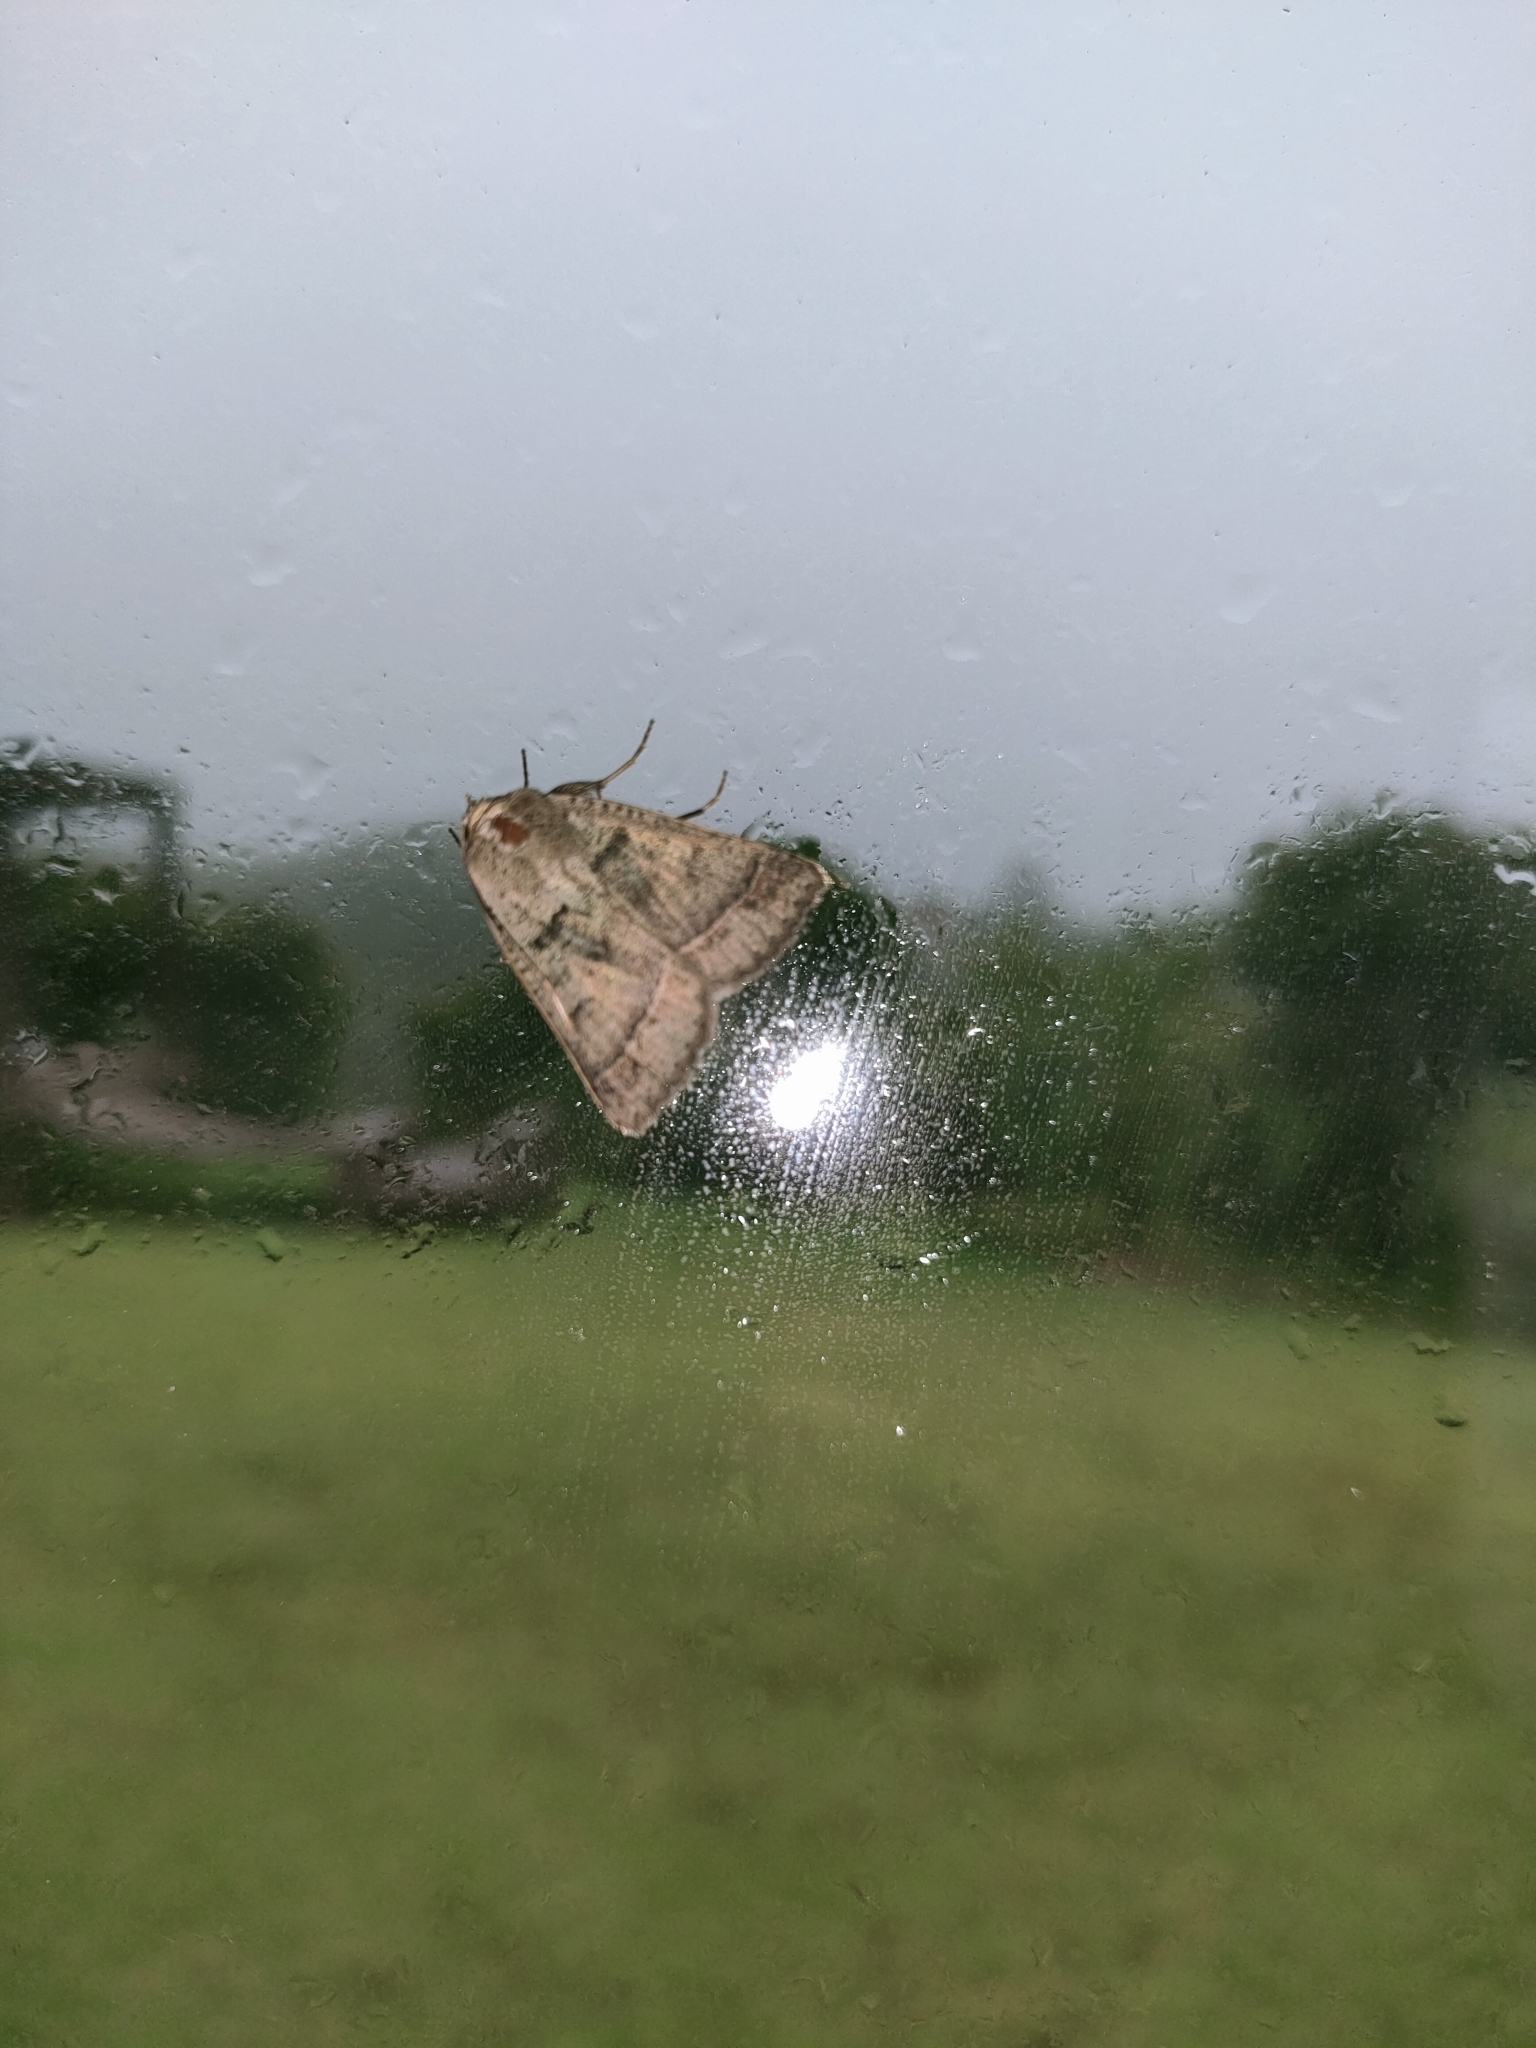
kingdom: Animalia
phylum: Arthropoda
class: Insecta
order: Lepidoptera
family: Erebidae
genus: Pantydia
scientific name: Pantydia sparsa
